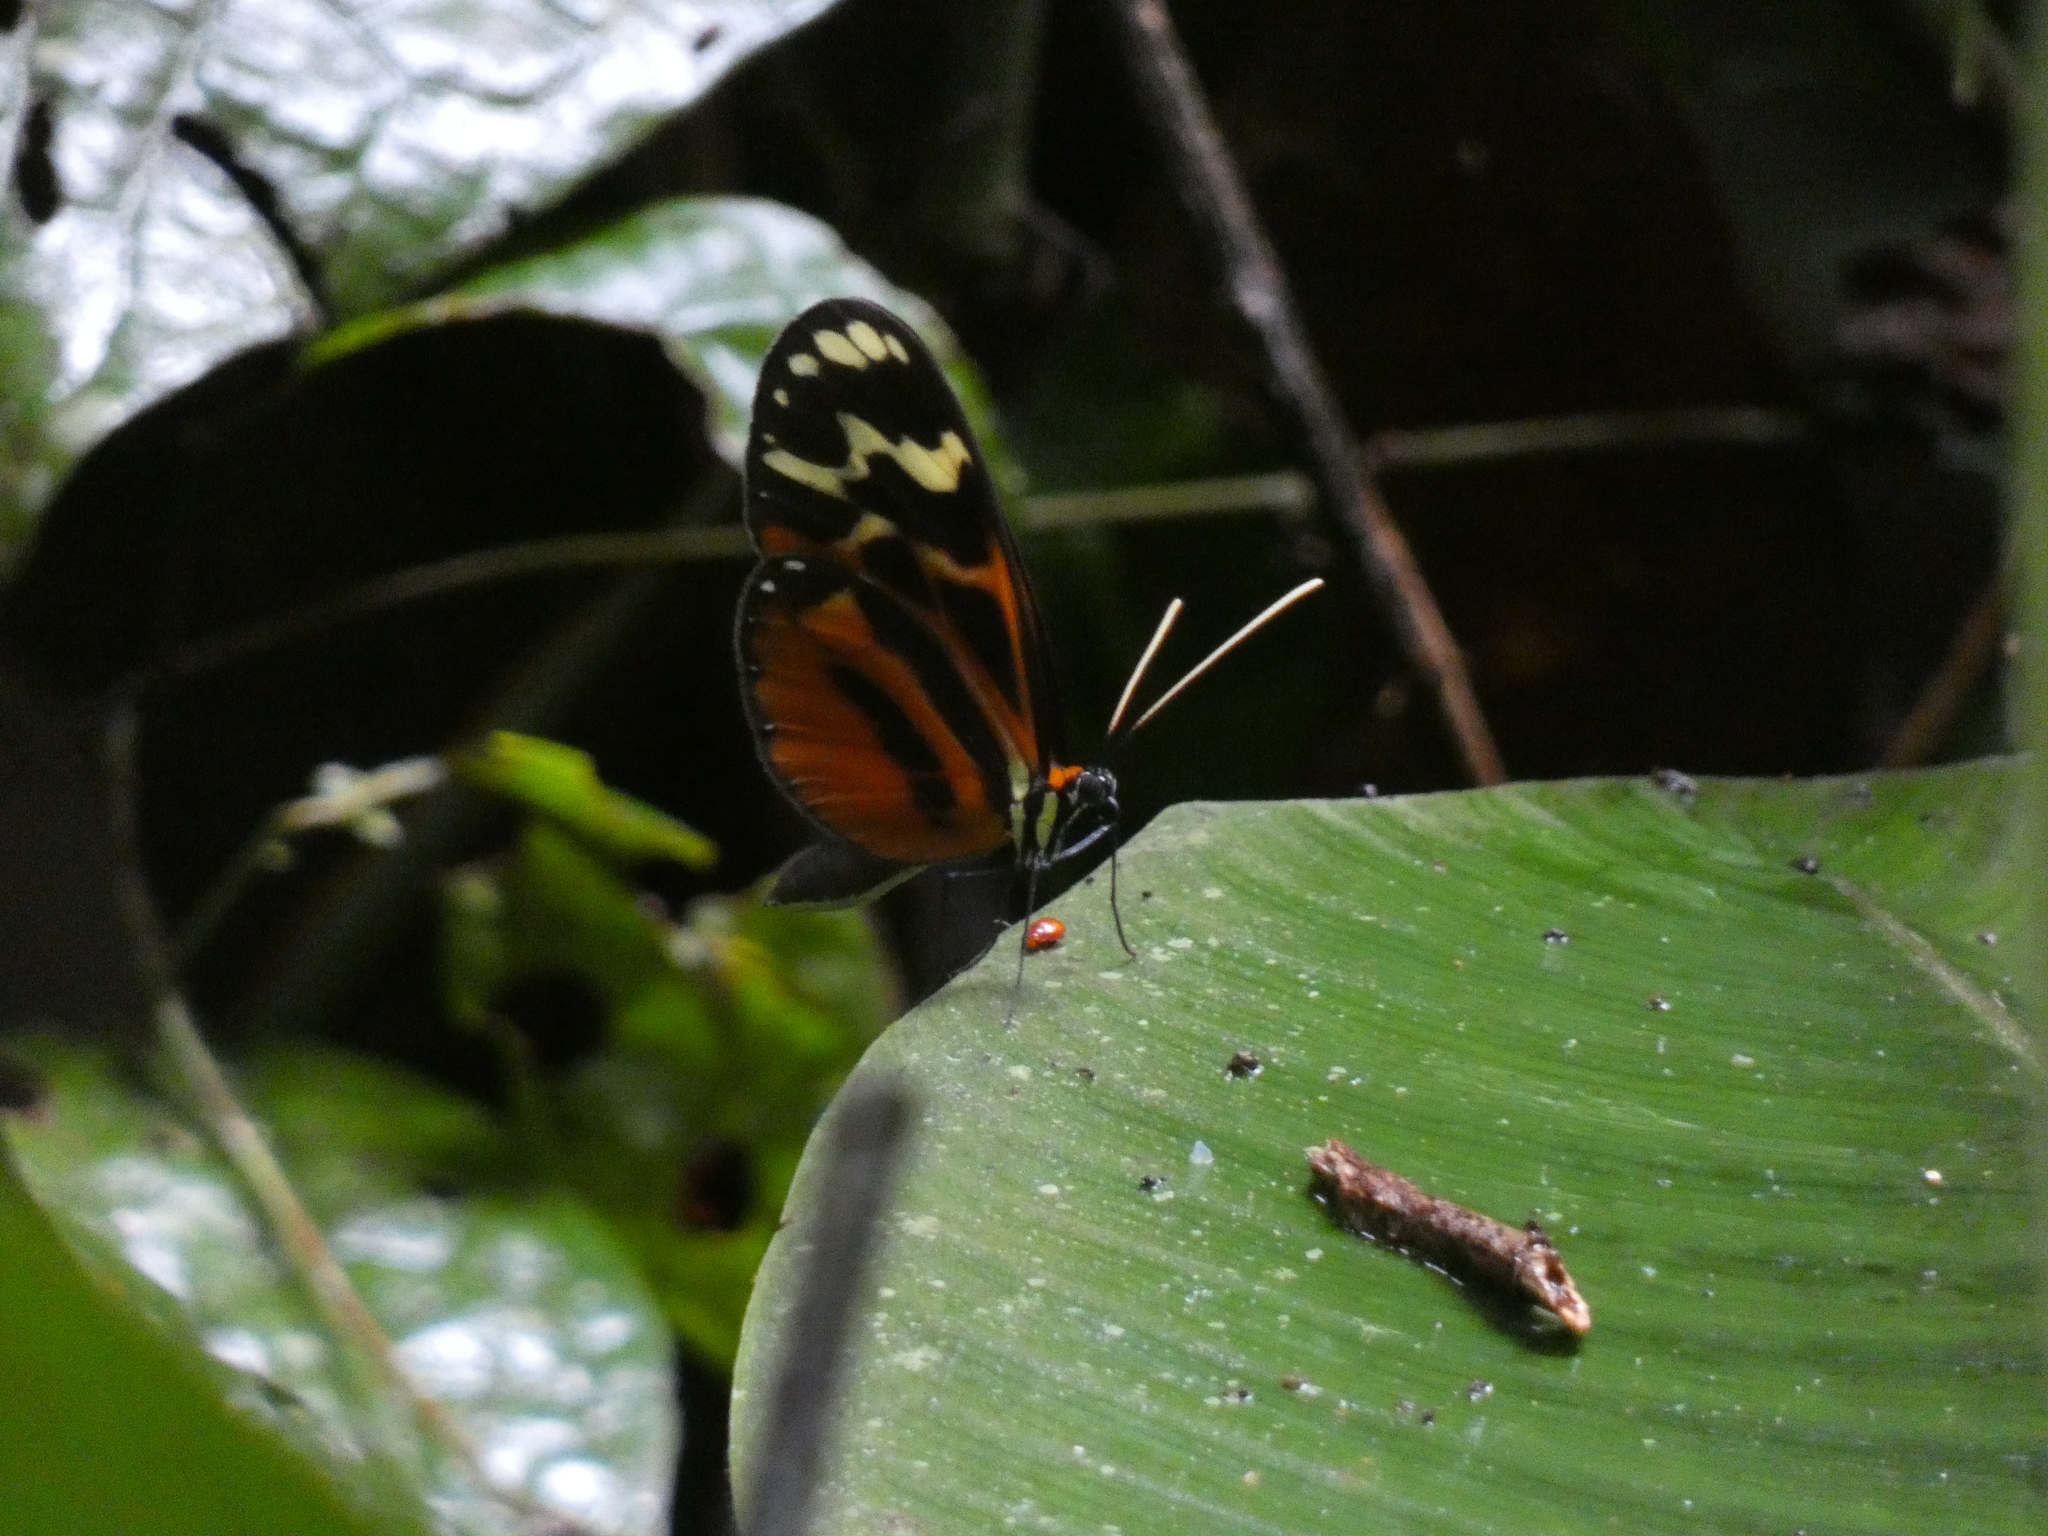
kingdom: Animalia
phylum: Arthropoda
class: Insecta
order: Lepidoptera
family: Nymphalidae
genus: Hypothyris
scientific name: Hypothyris semifulva
